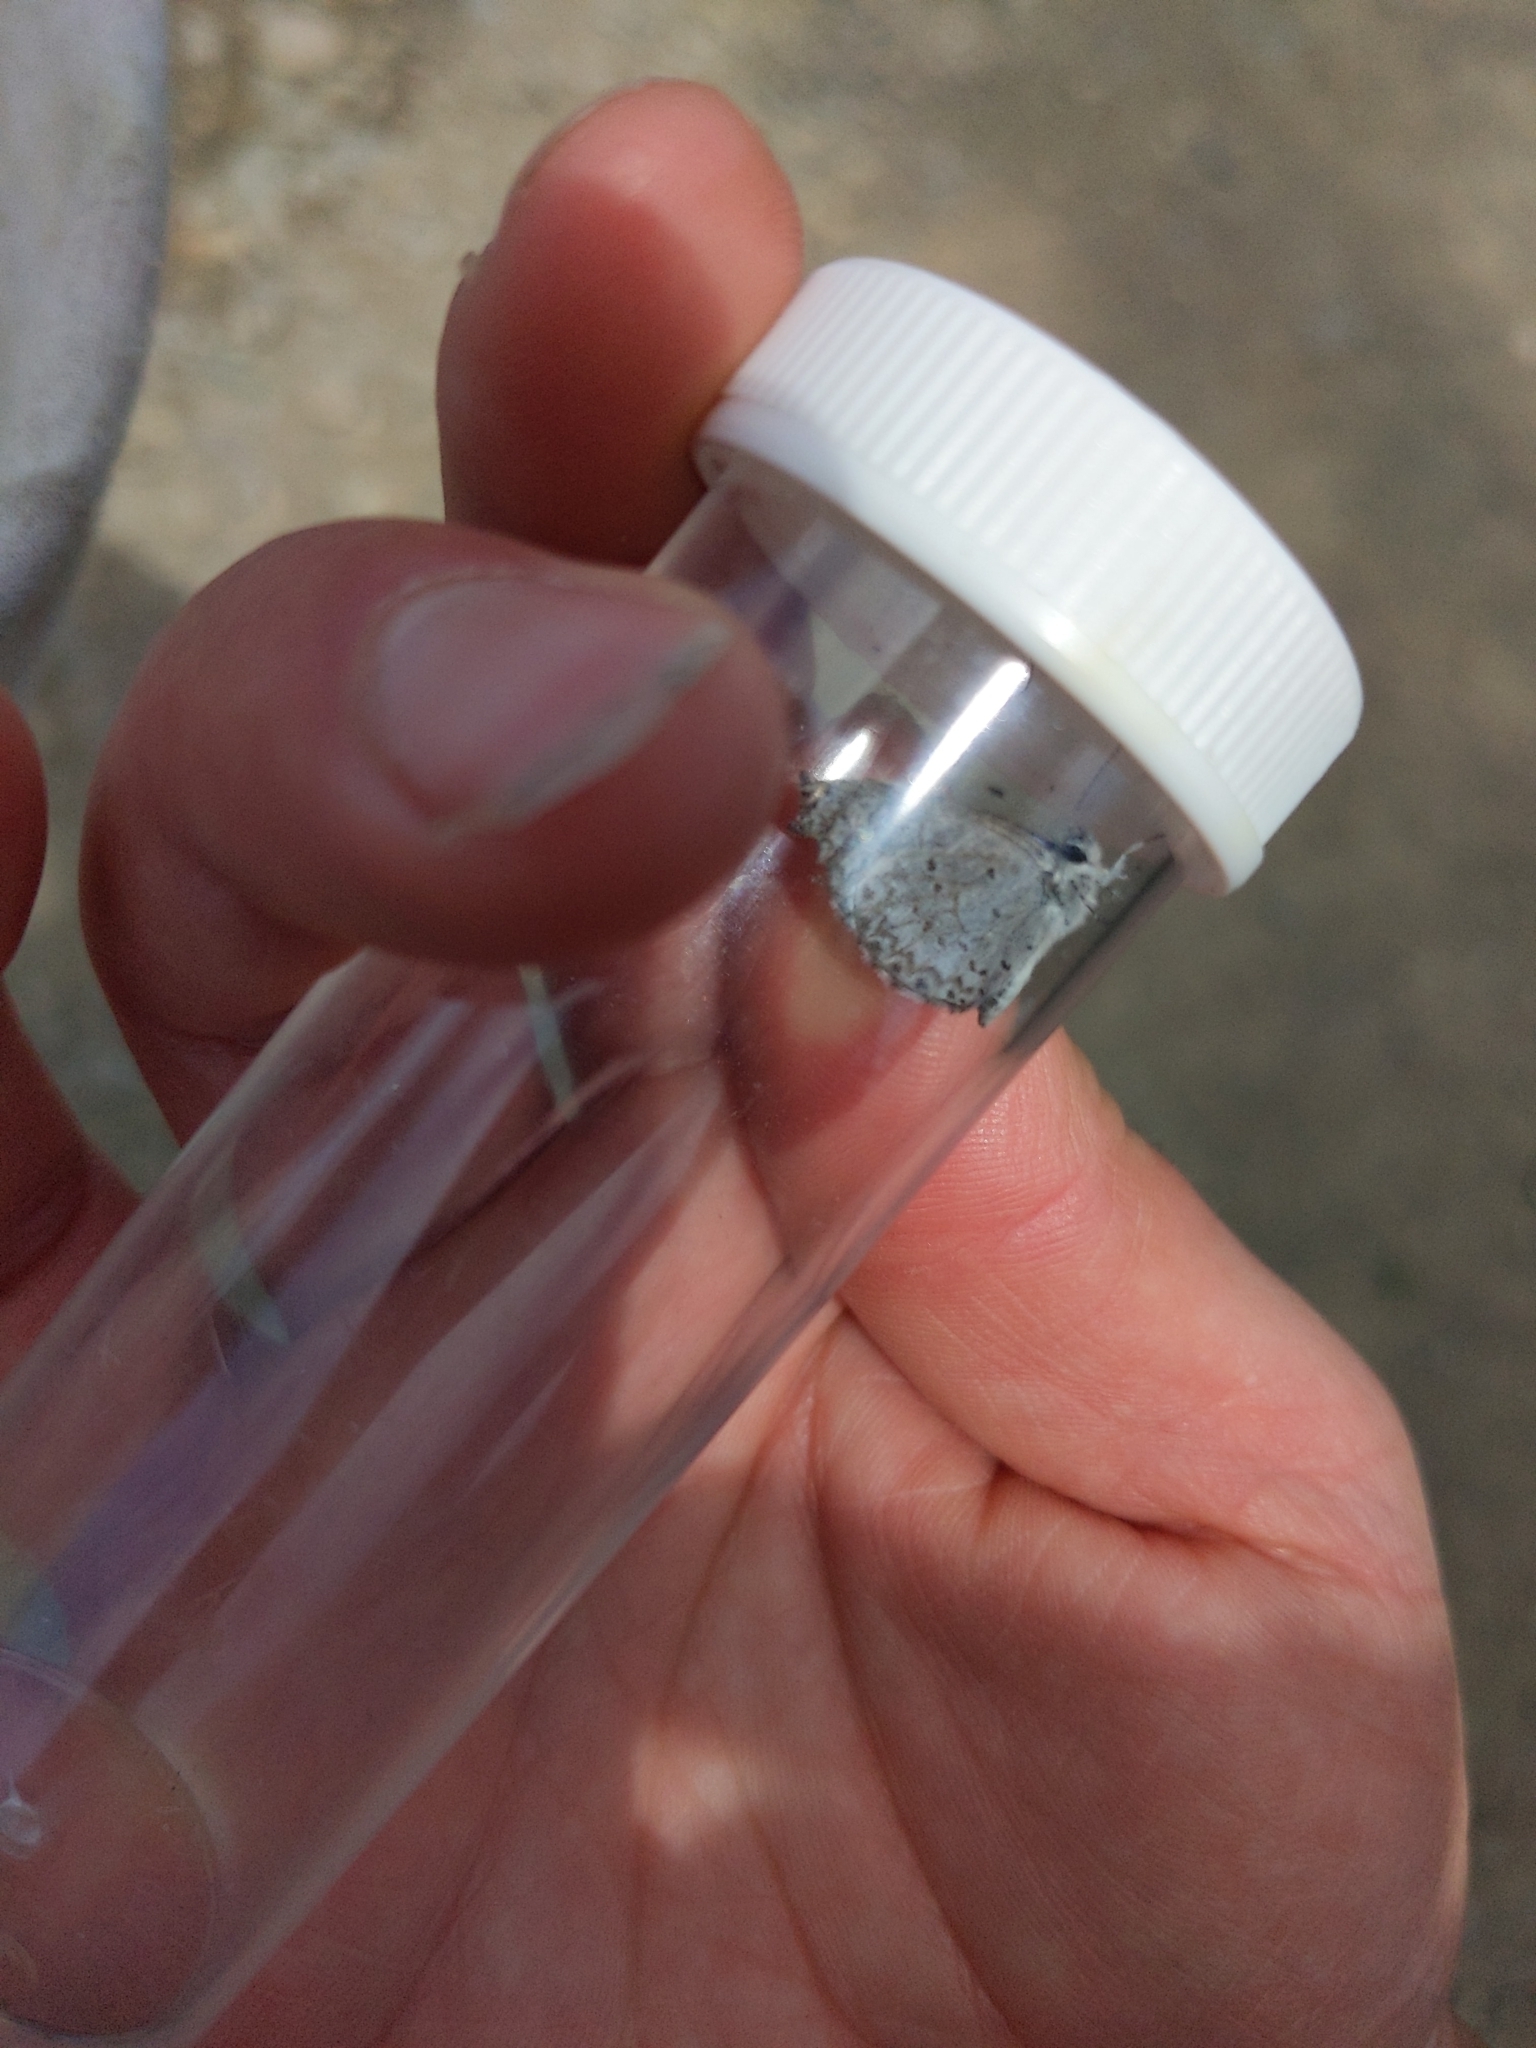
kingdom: Animalia
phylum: Arthropoda
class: Insecta
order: Lepidoptera
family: Lycaenidae
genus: Celastrina
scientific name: Celastrina lucia
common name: Lucia azure
